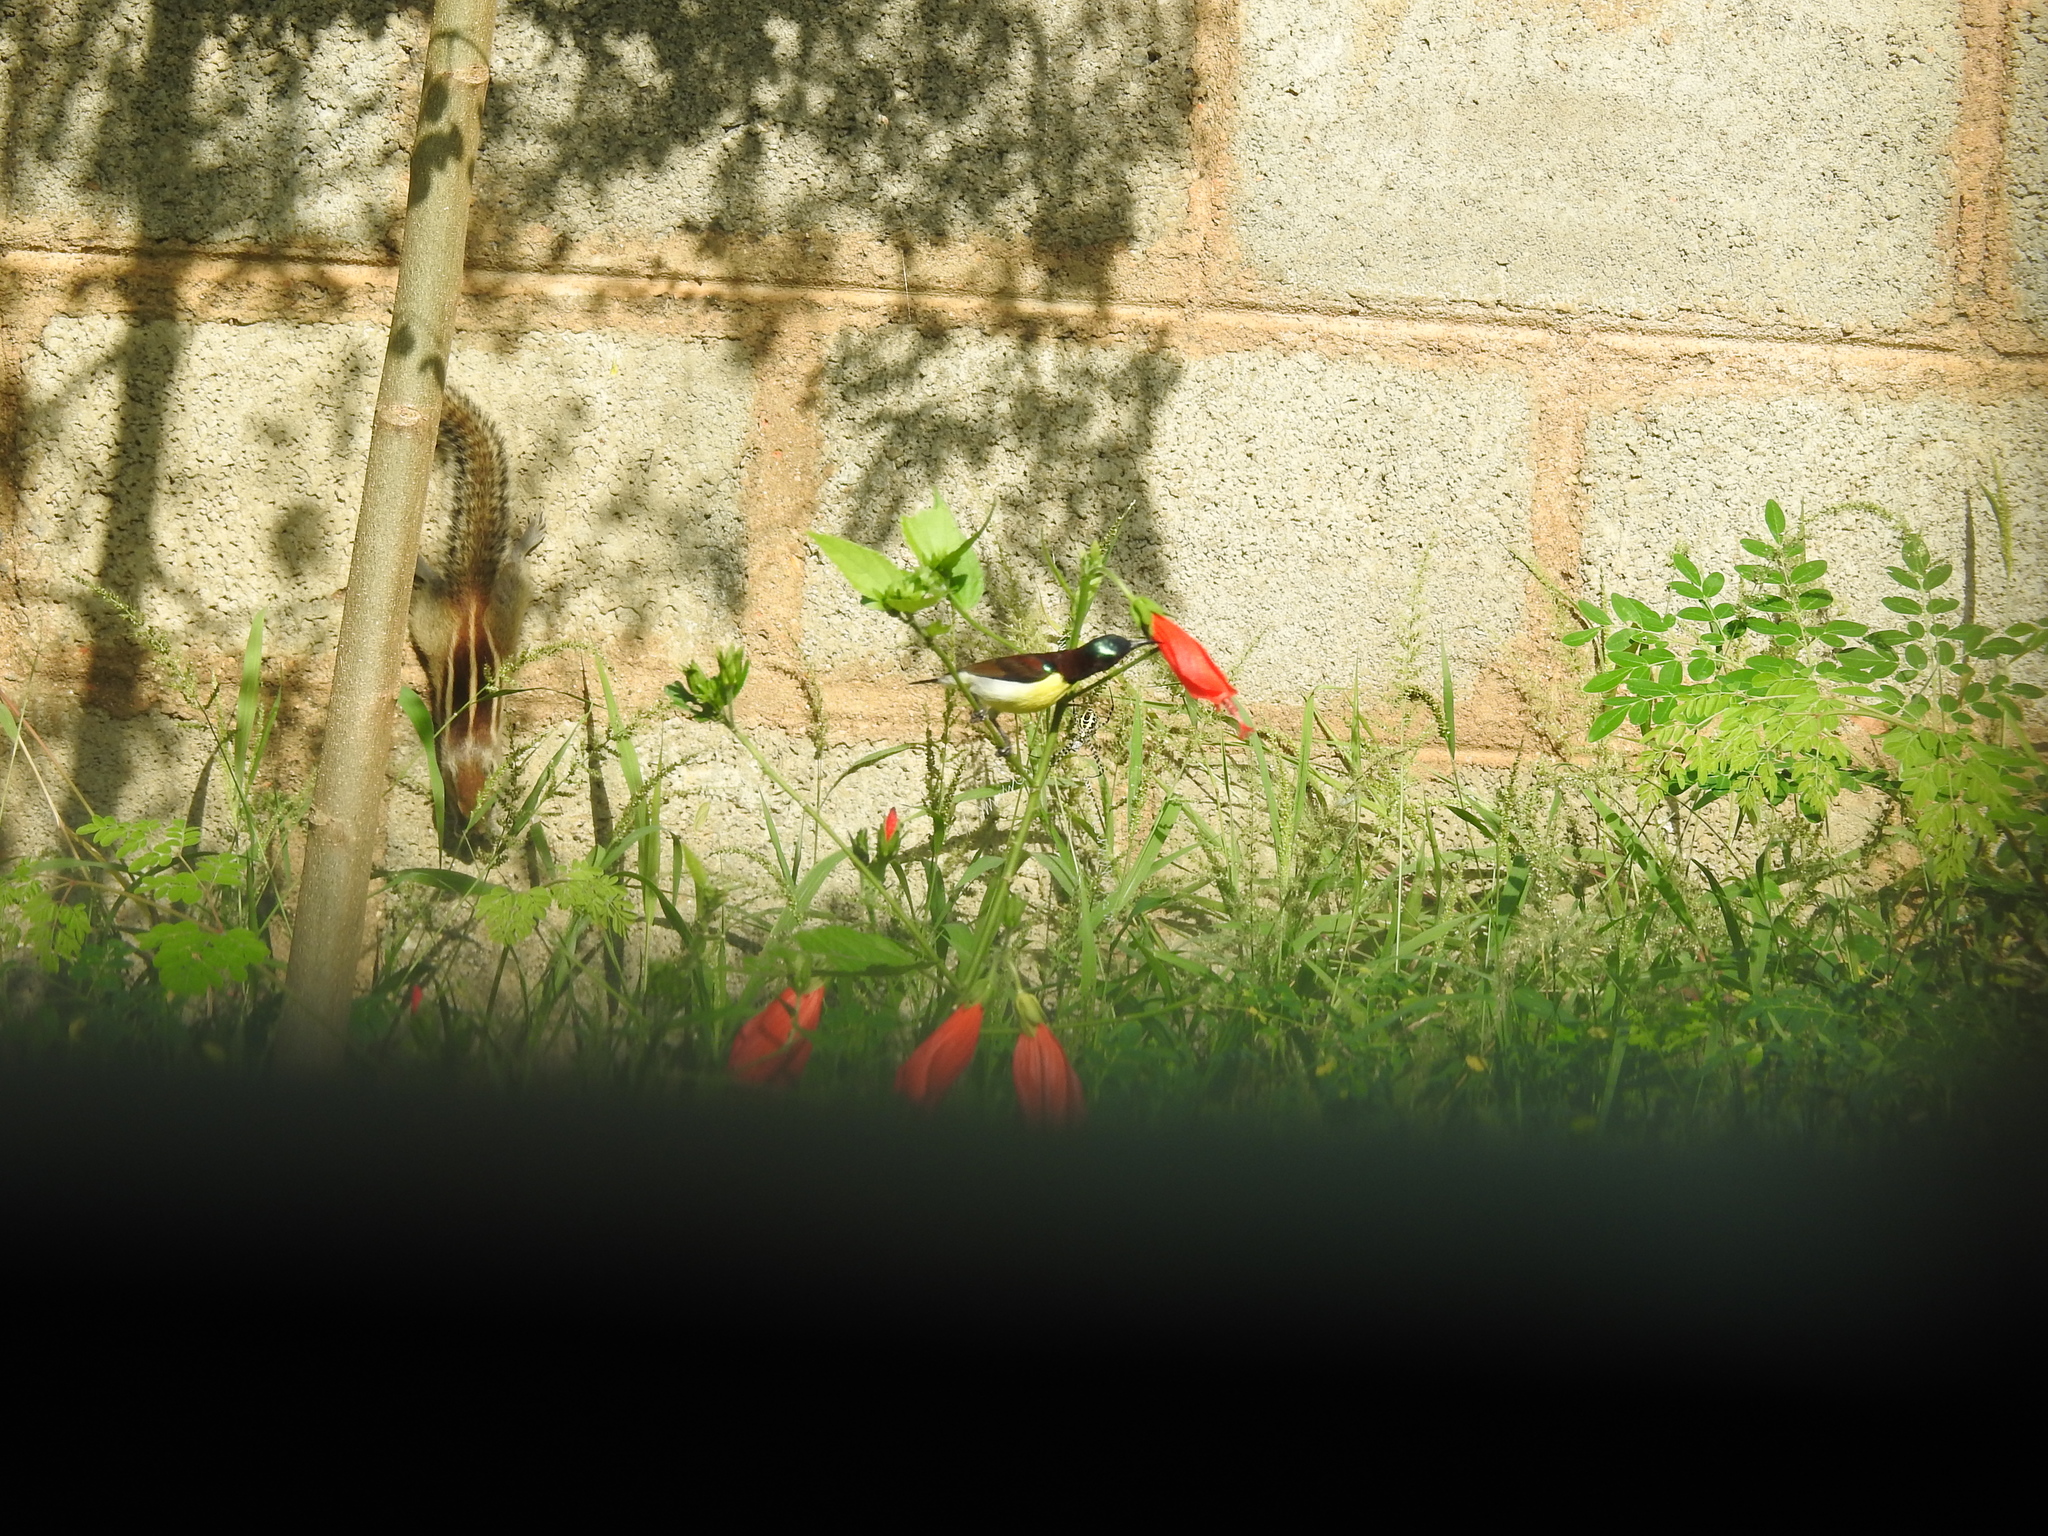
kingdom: Animalia
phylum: Chordata
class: Mammalia
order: Rodentia
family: Sciuridae
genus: Funambulus
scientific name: Funambulus palmarum
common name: Indian palm squirrel
